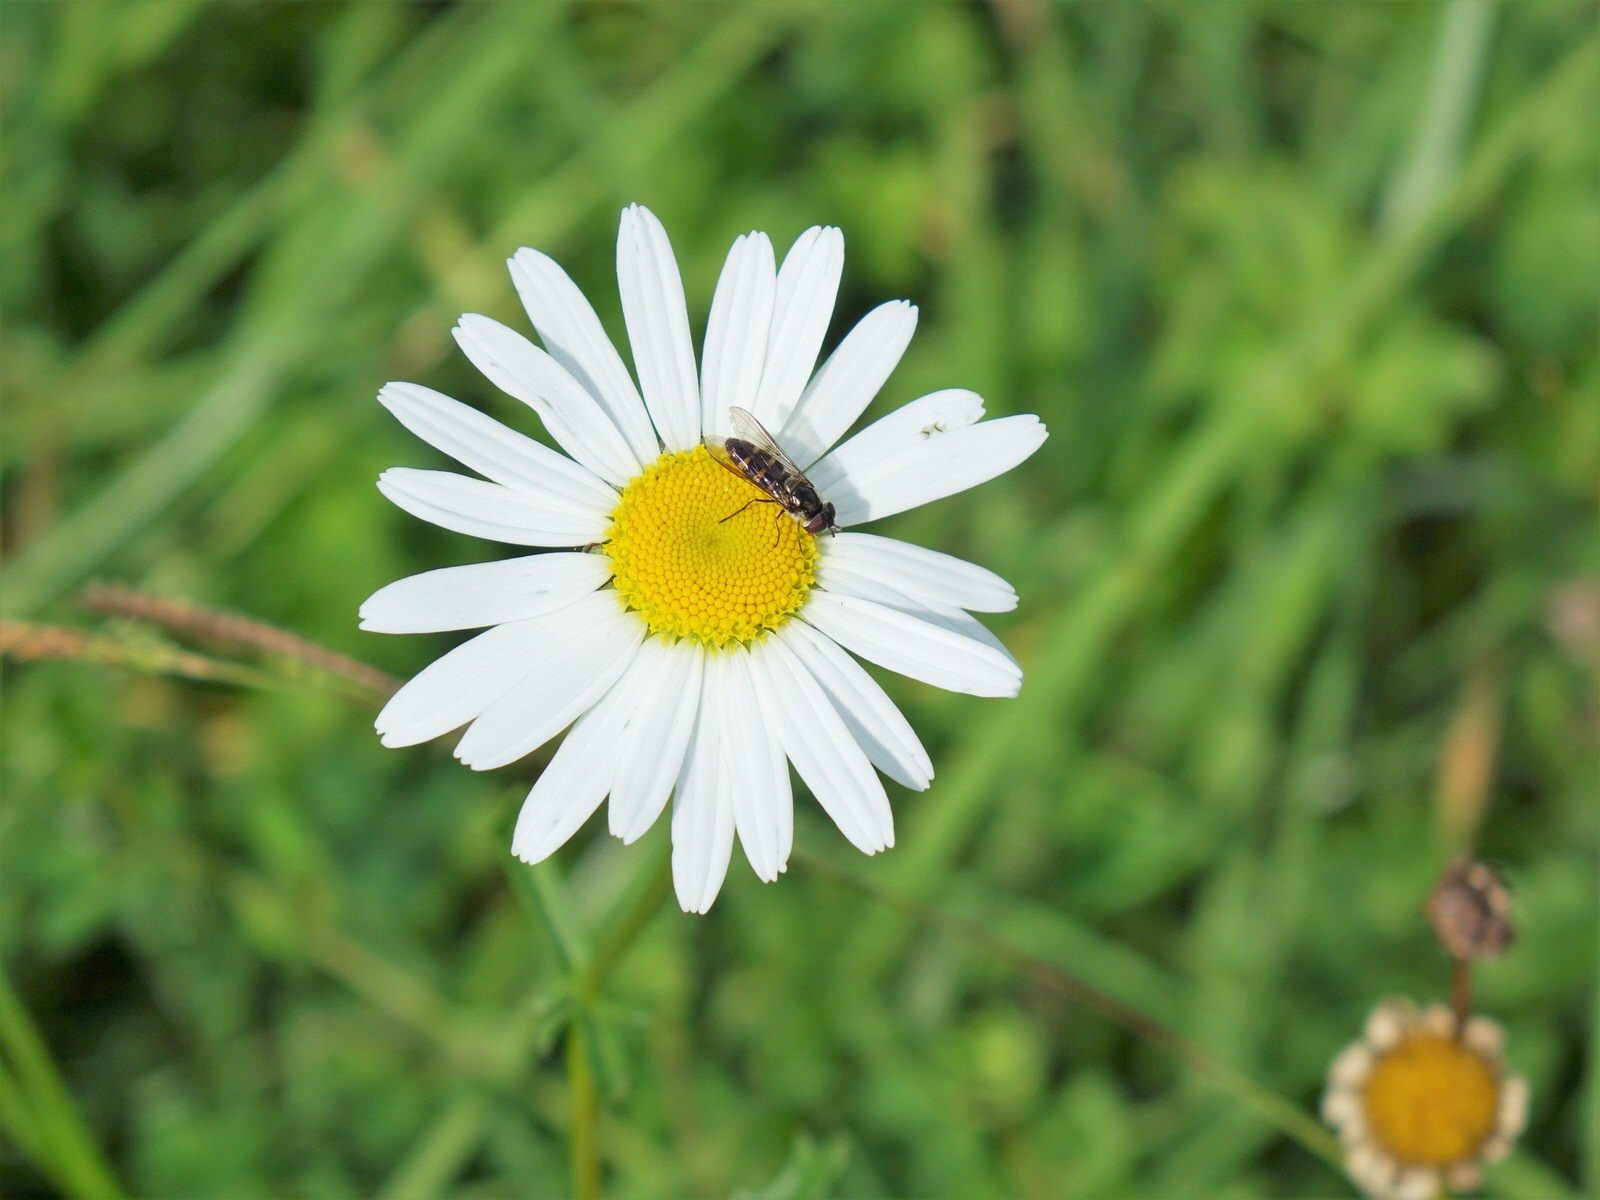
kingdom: Animalia
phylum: Arthropoda
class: Insecta
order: Diptera
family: Syrphidae
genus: Melangyna
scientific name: Melangyna novaezelandiae
